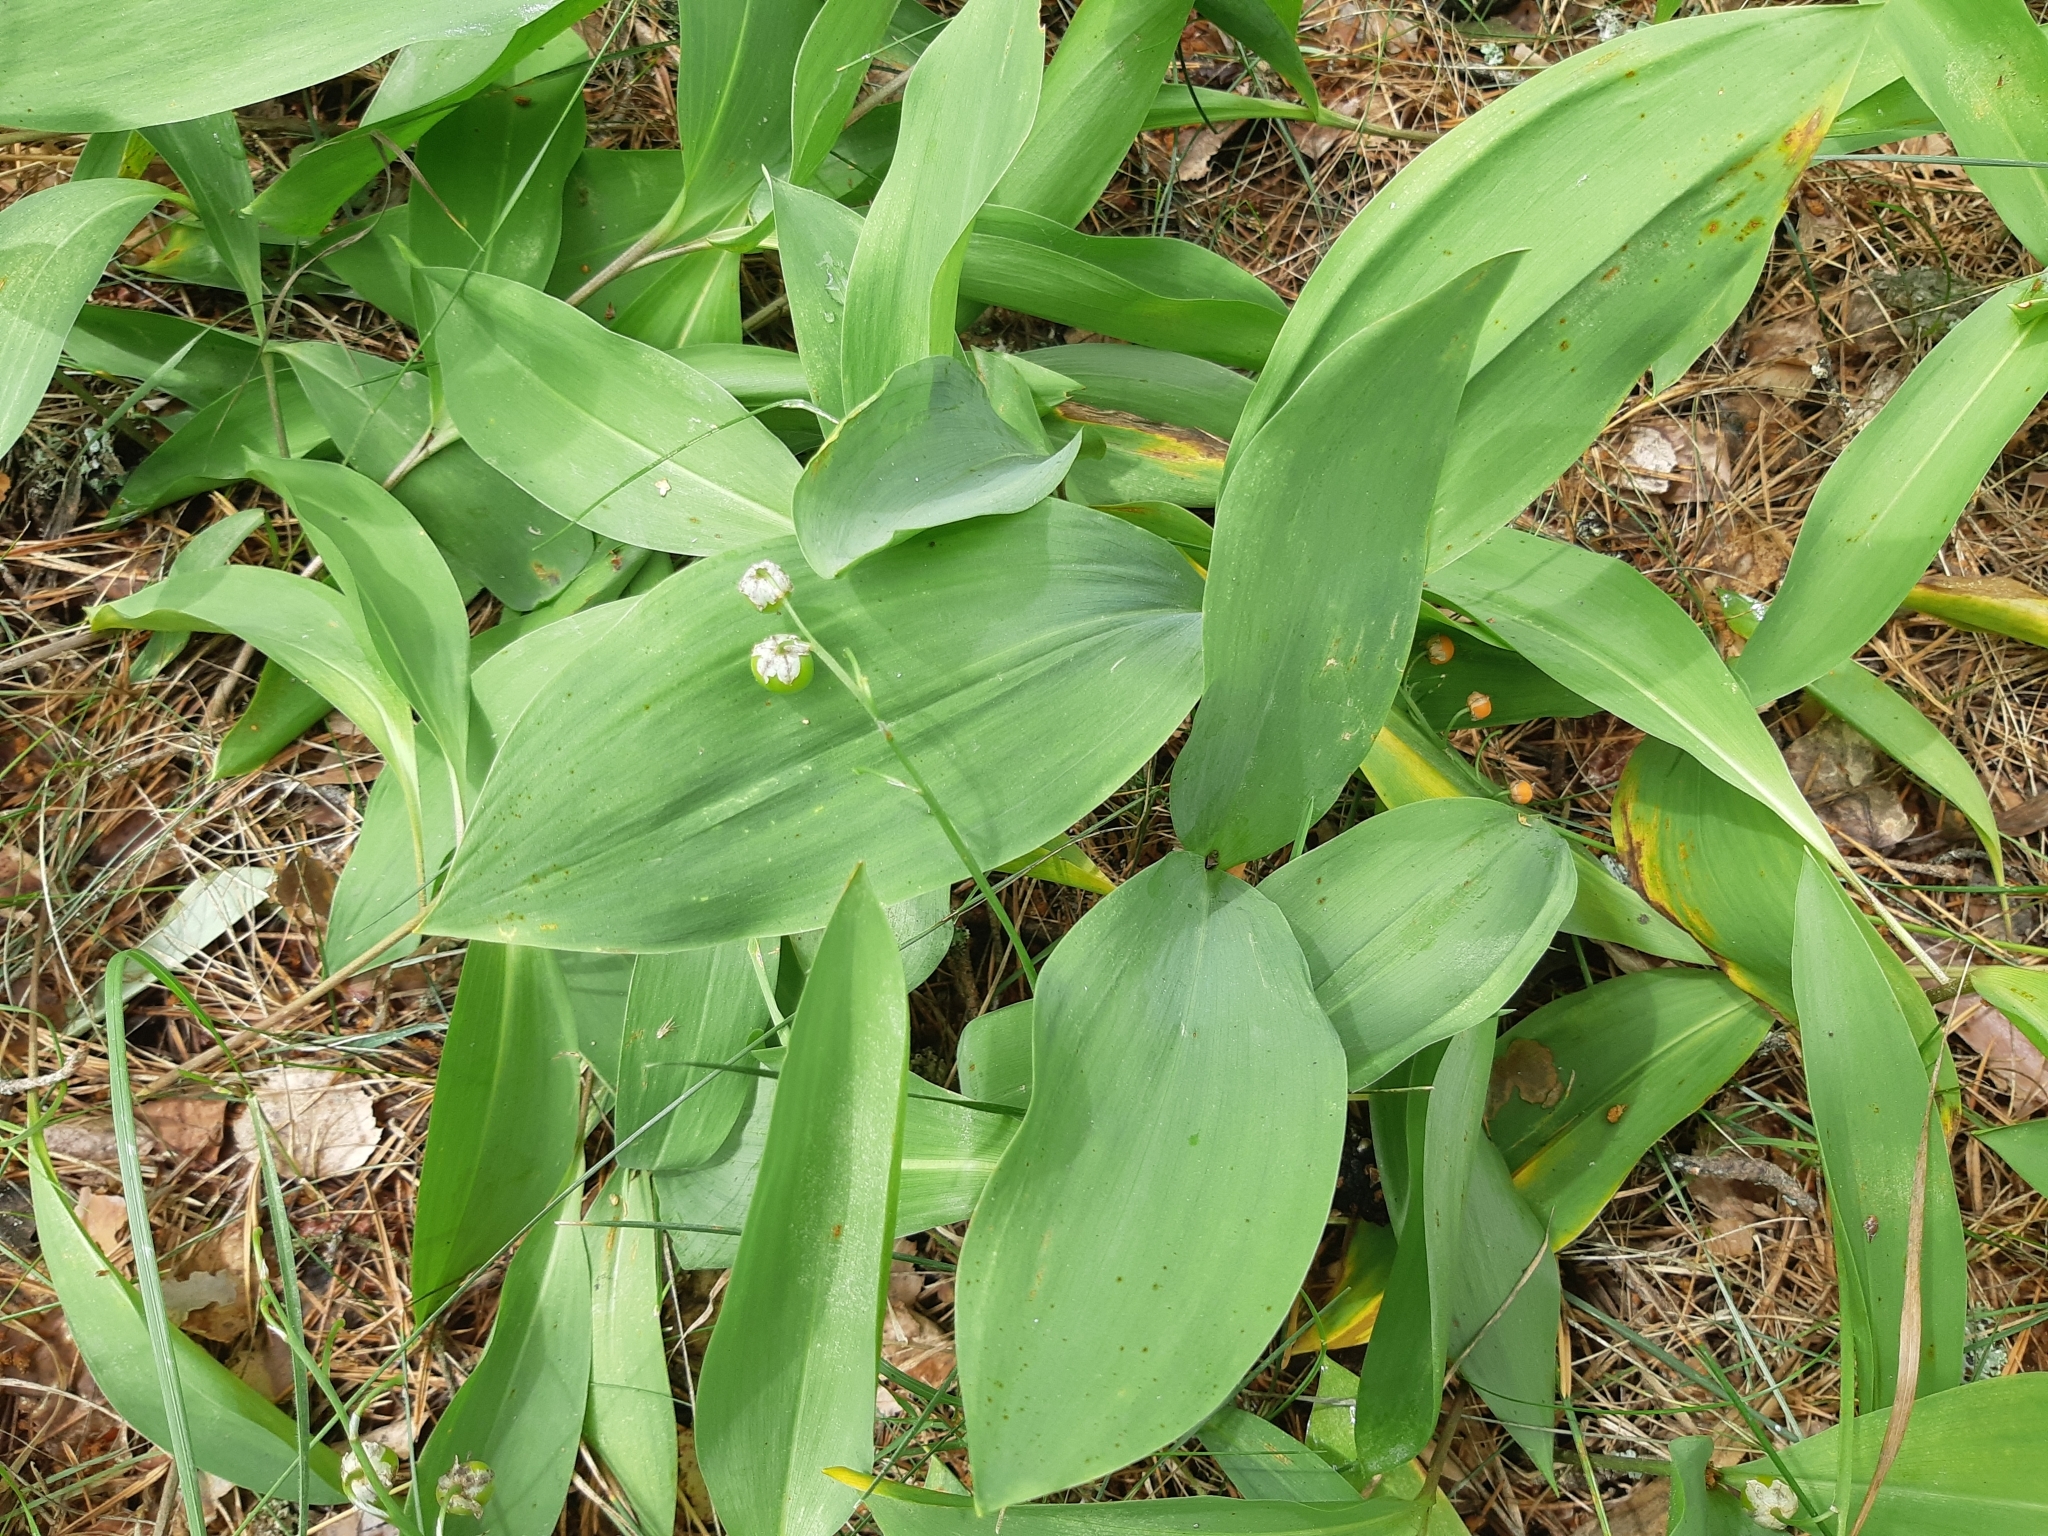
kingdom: Plantae
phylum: Tracheophyta
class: Liliopsida
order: Asparagales
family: Asparagaceae
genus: Convallaria
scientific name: Convallaria majalis
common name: Lily-of-the-valley
